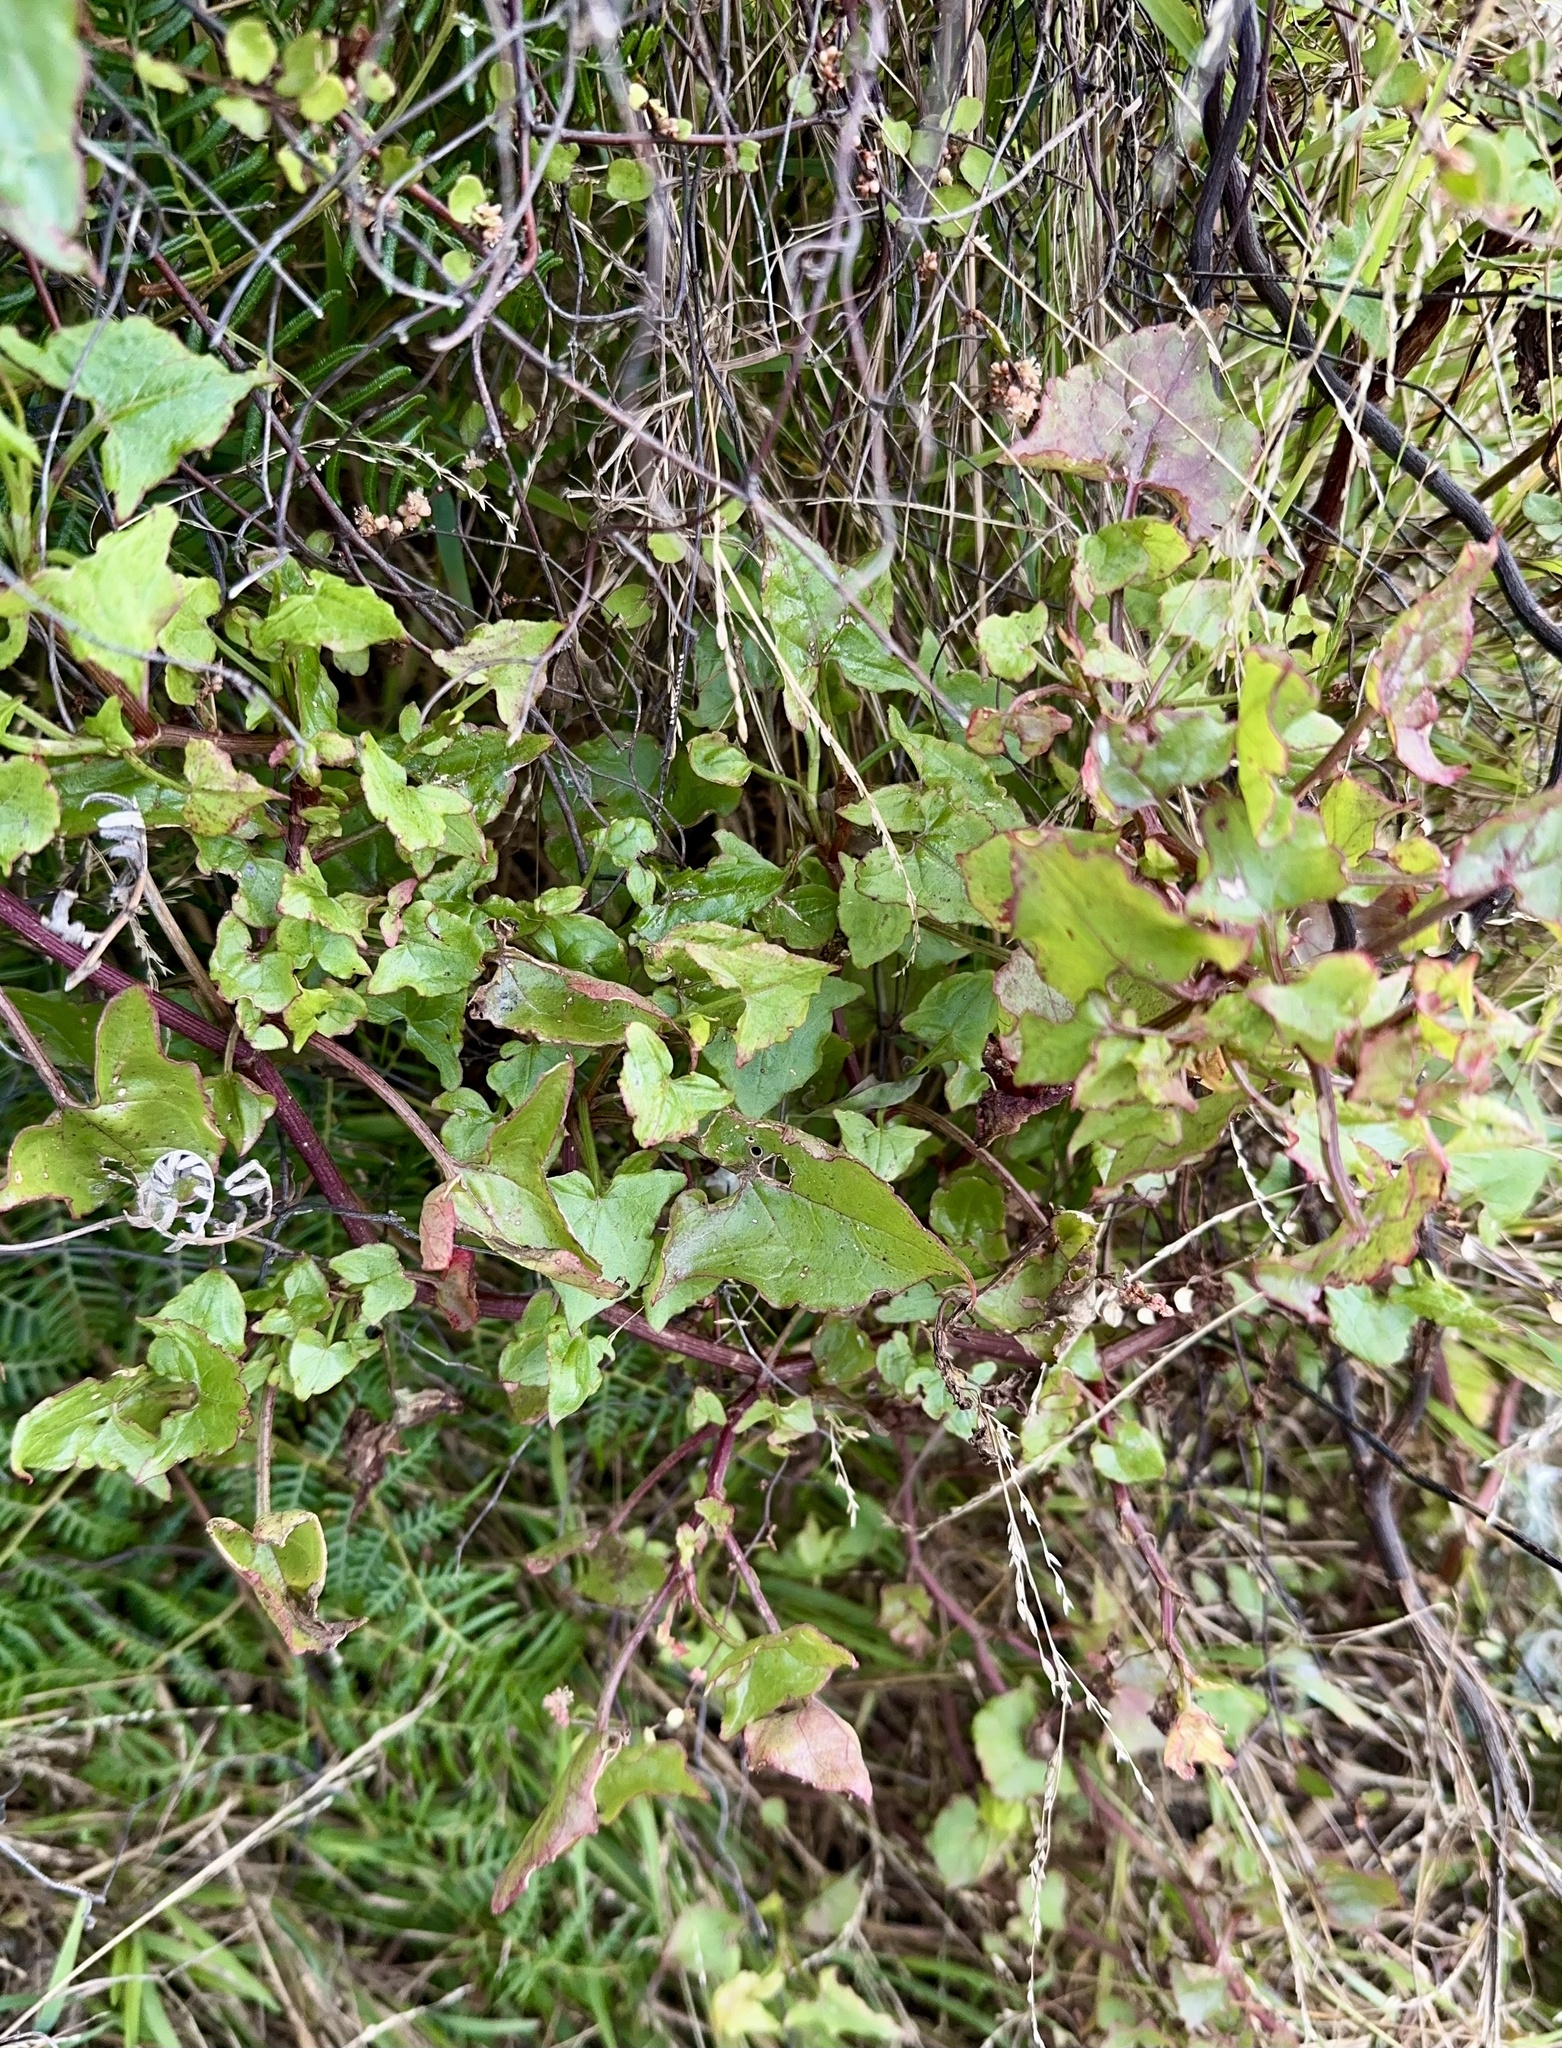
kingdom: Plantae
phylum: Tracheophyta
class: Magnoliopsida
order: Caryophyllales
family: Polygonaceae
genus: Rumex
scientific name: Rumex sagittatus
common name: Climbing dock
